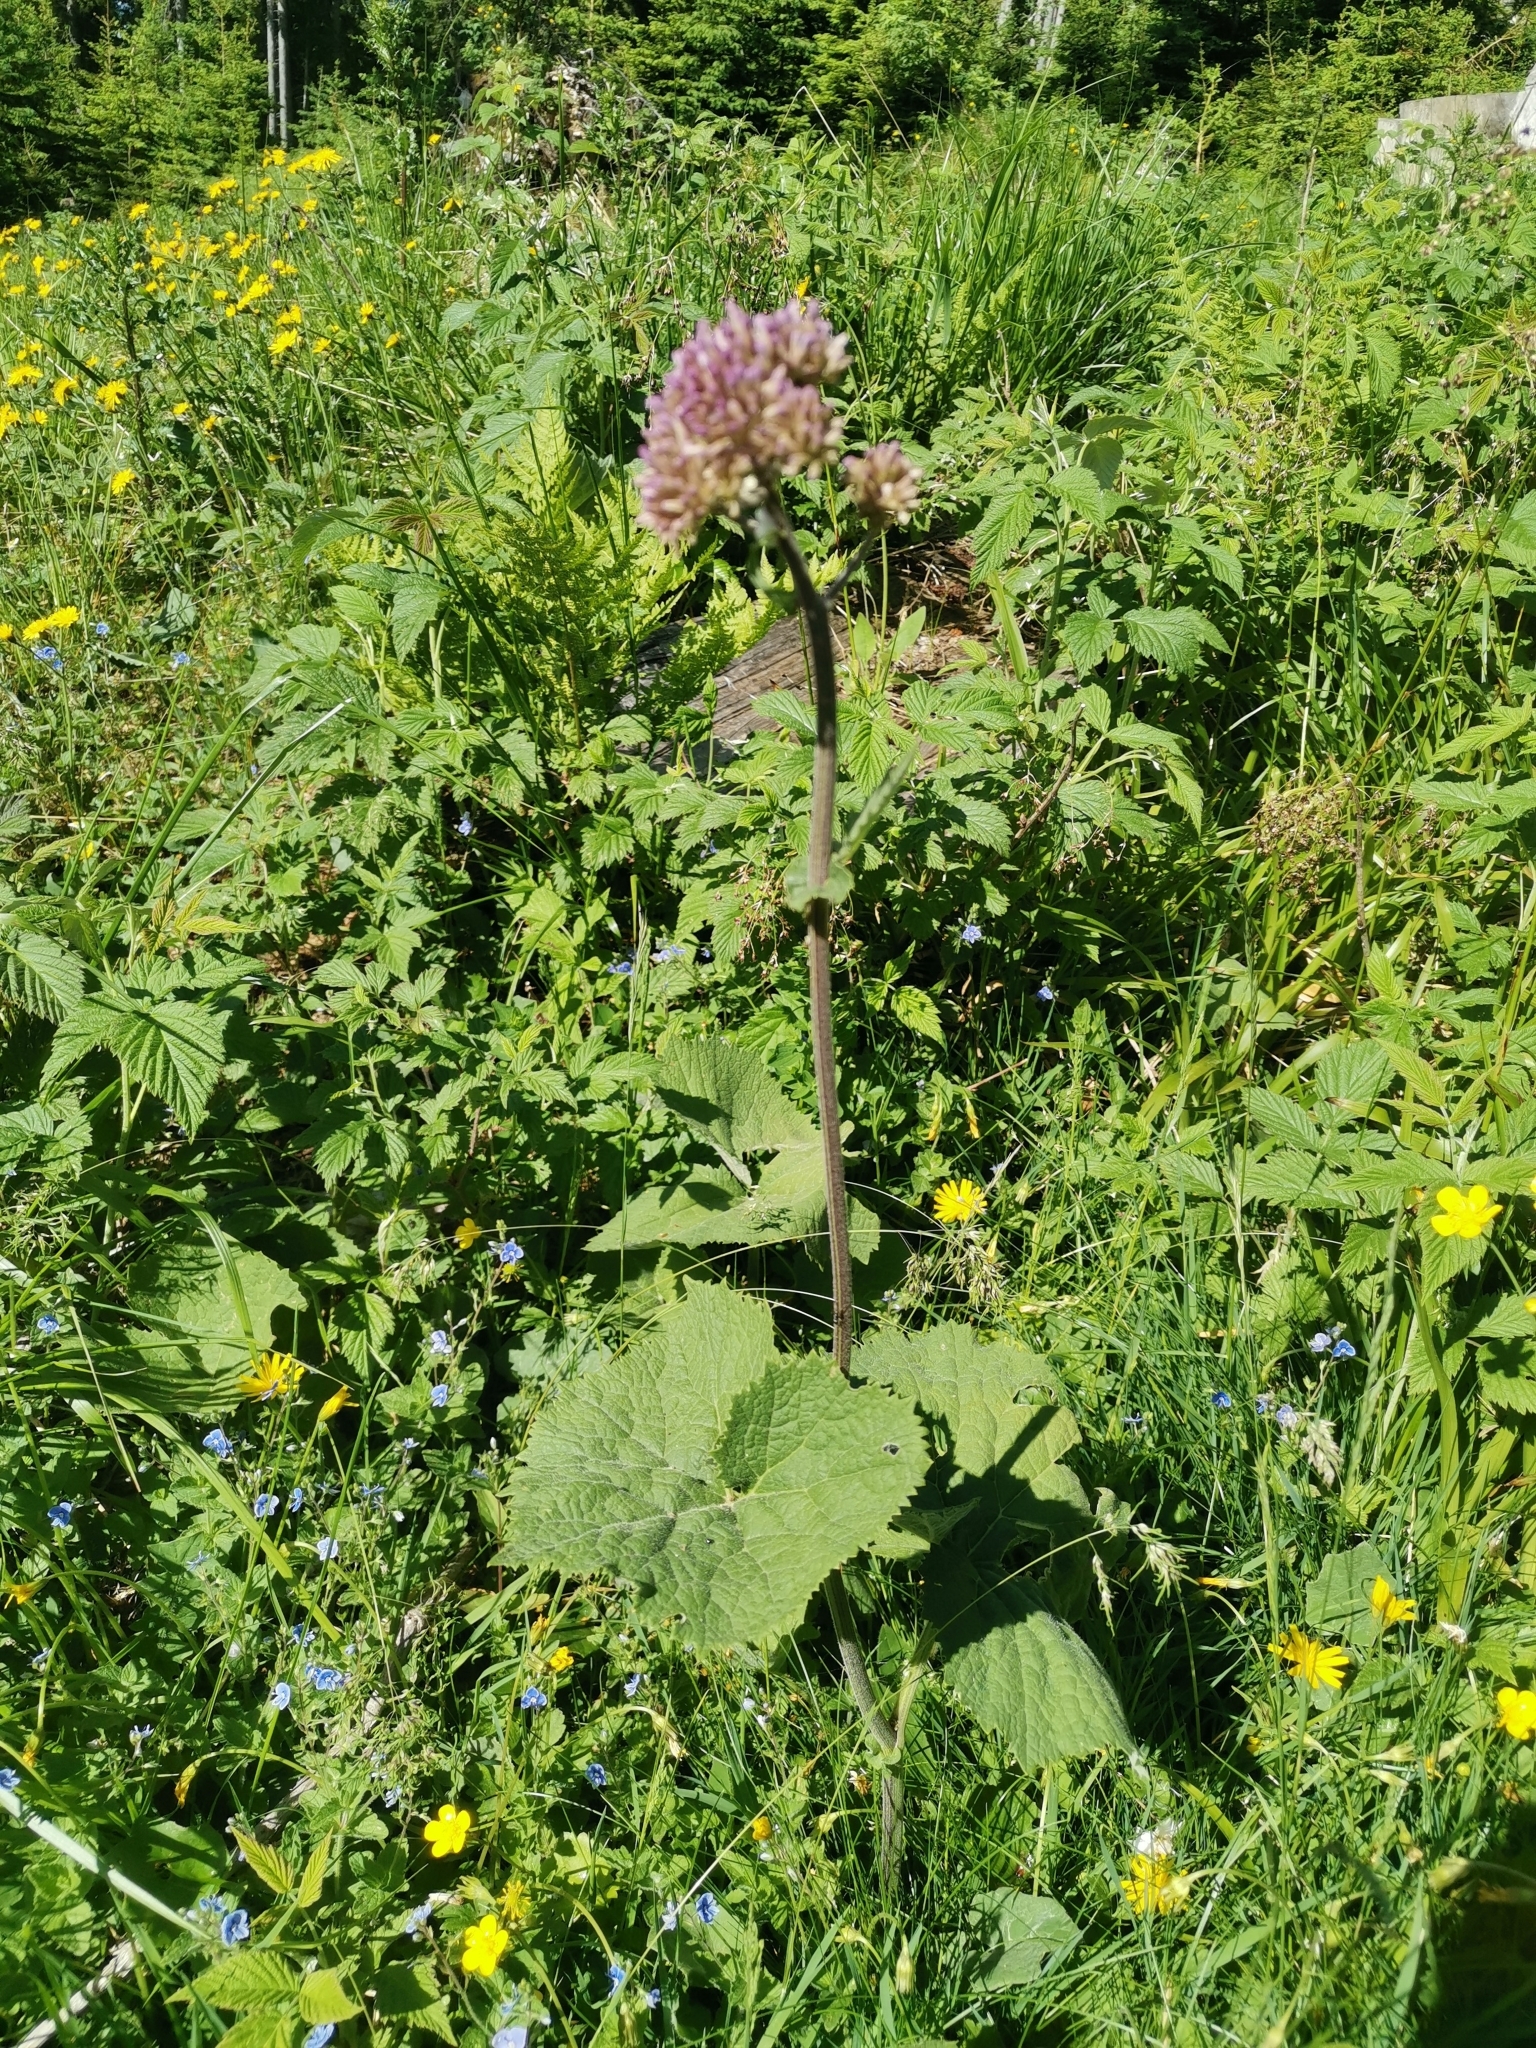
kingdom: Plantae
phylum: Tracheophyta
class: Magnoliopsida
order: Asterales
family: Asteraceae
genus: Adenostyles
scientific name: Adenostyles alliariae
